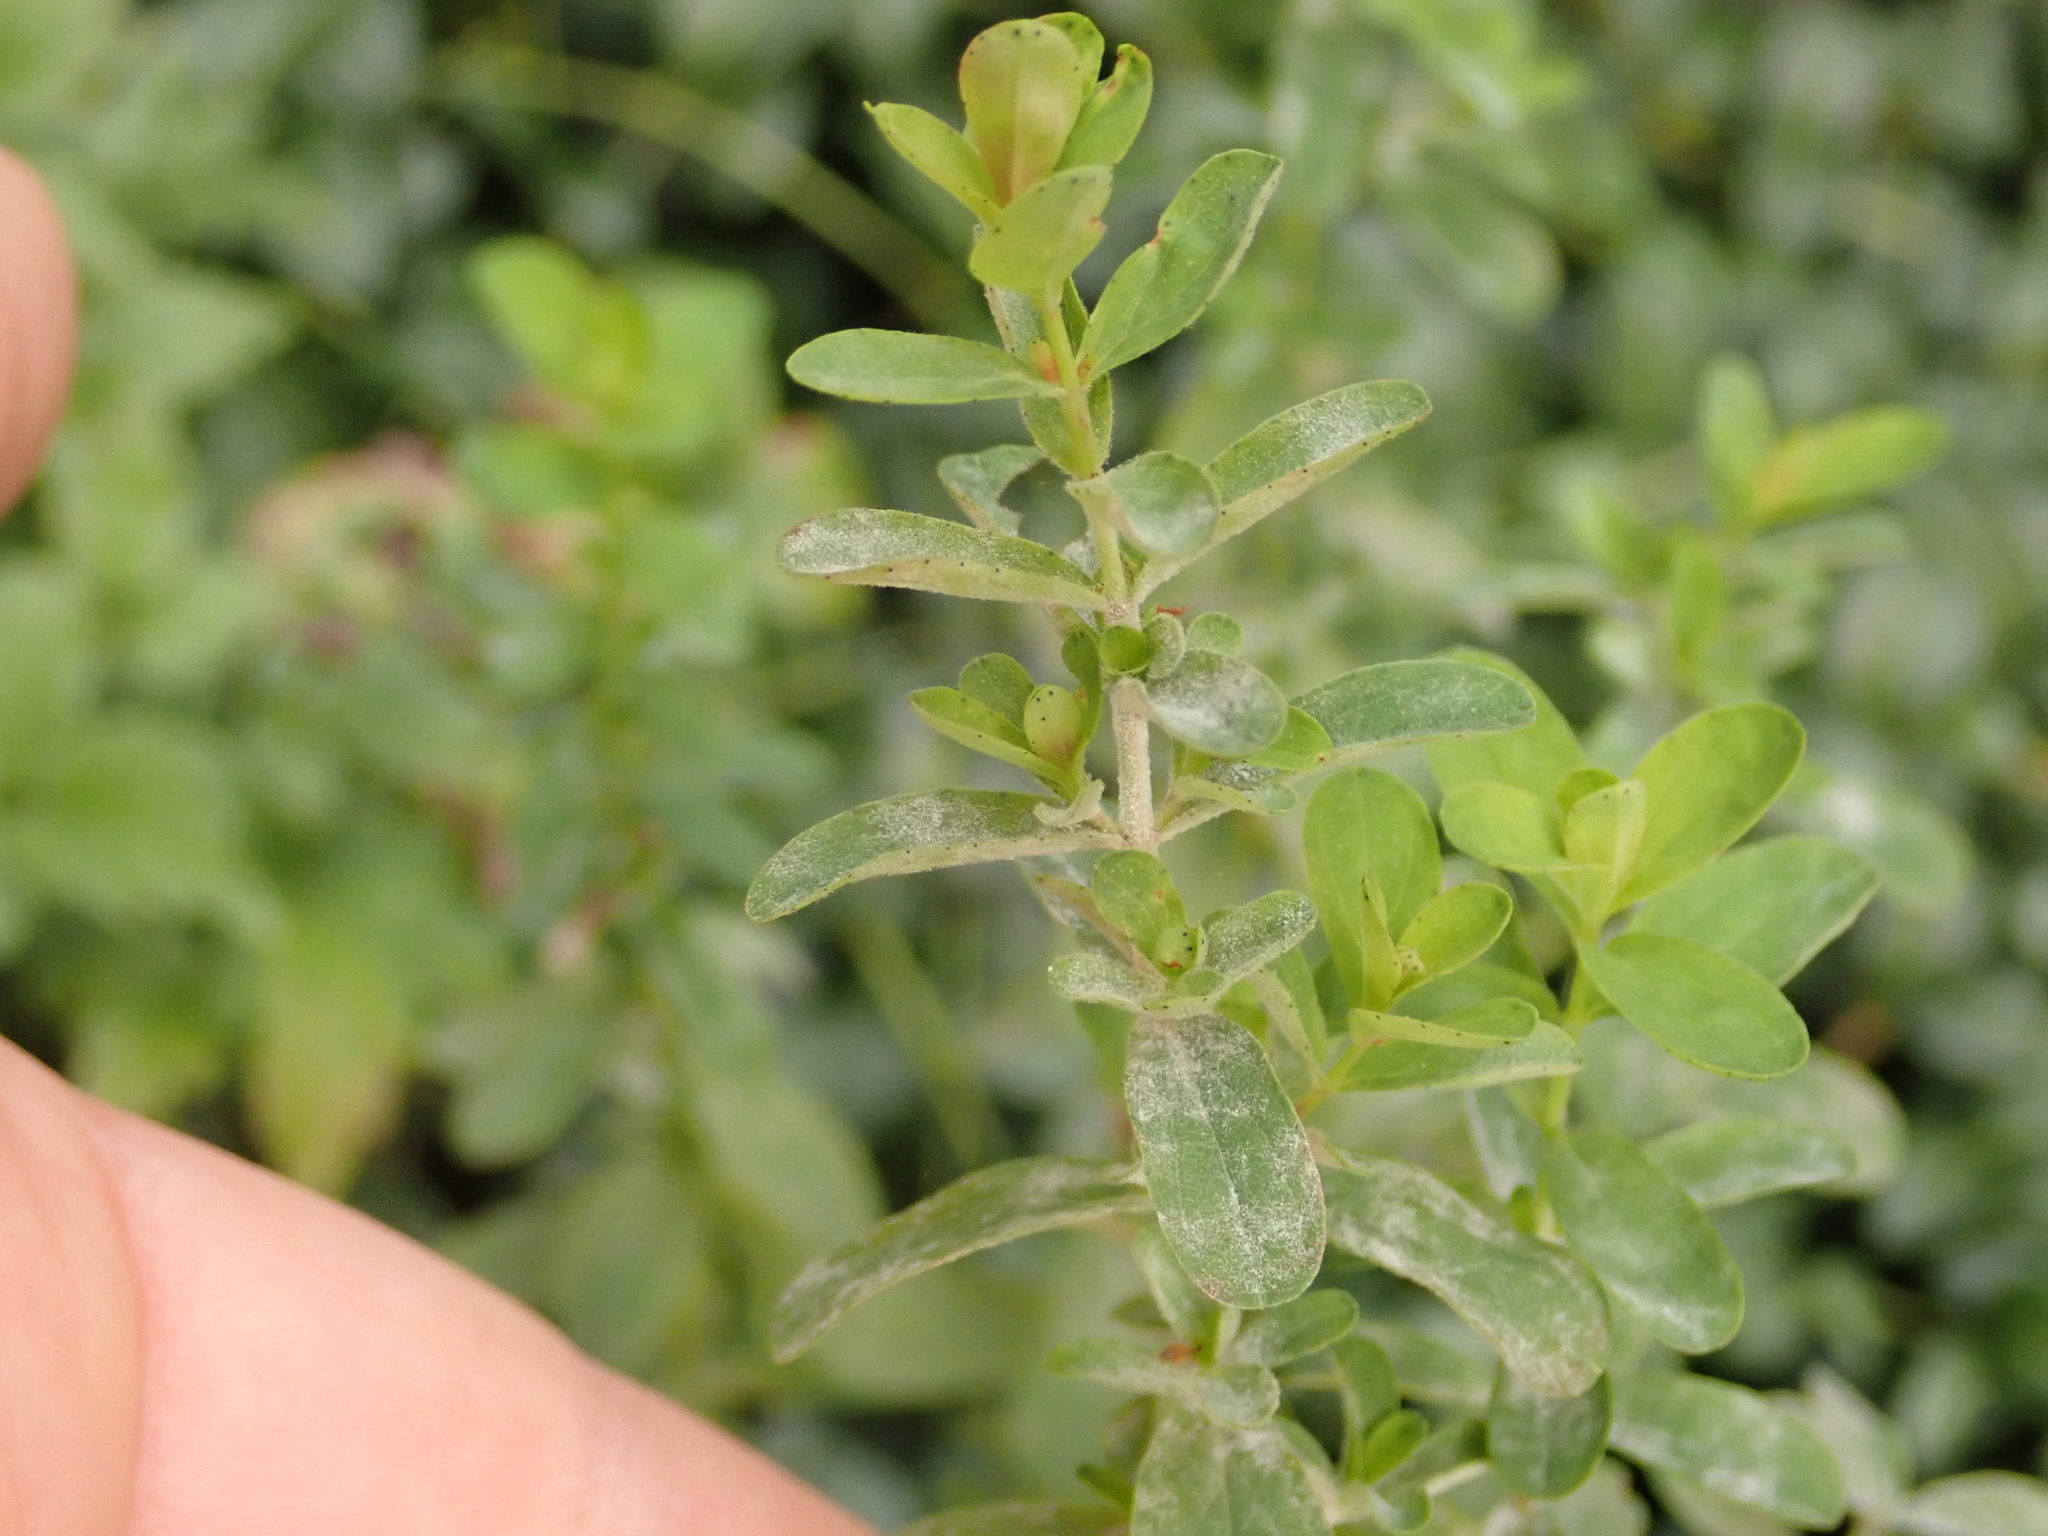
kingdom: Plantae
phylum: Tracheophyta
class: Magnoliopsida
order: Malpighiales
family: Hypericaceae
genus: Hypericum
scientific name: Hypericum perforatum
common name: Common st. johnswort
